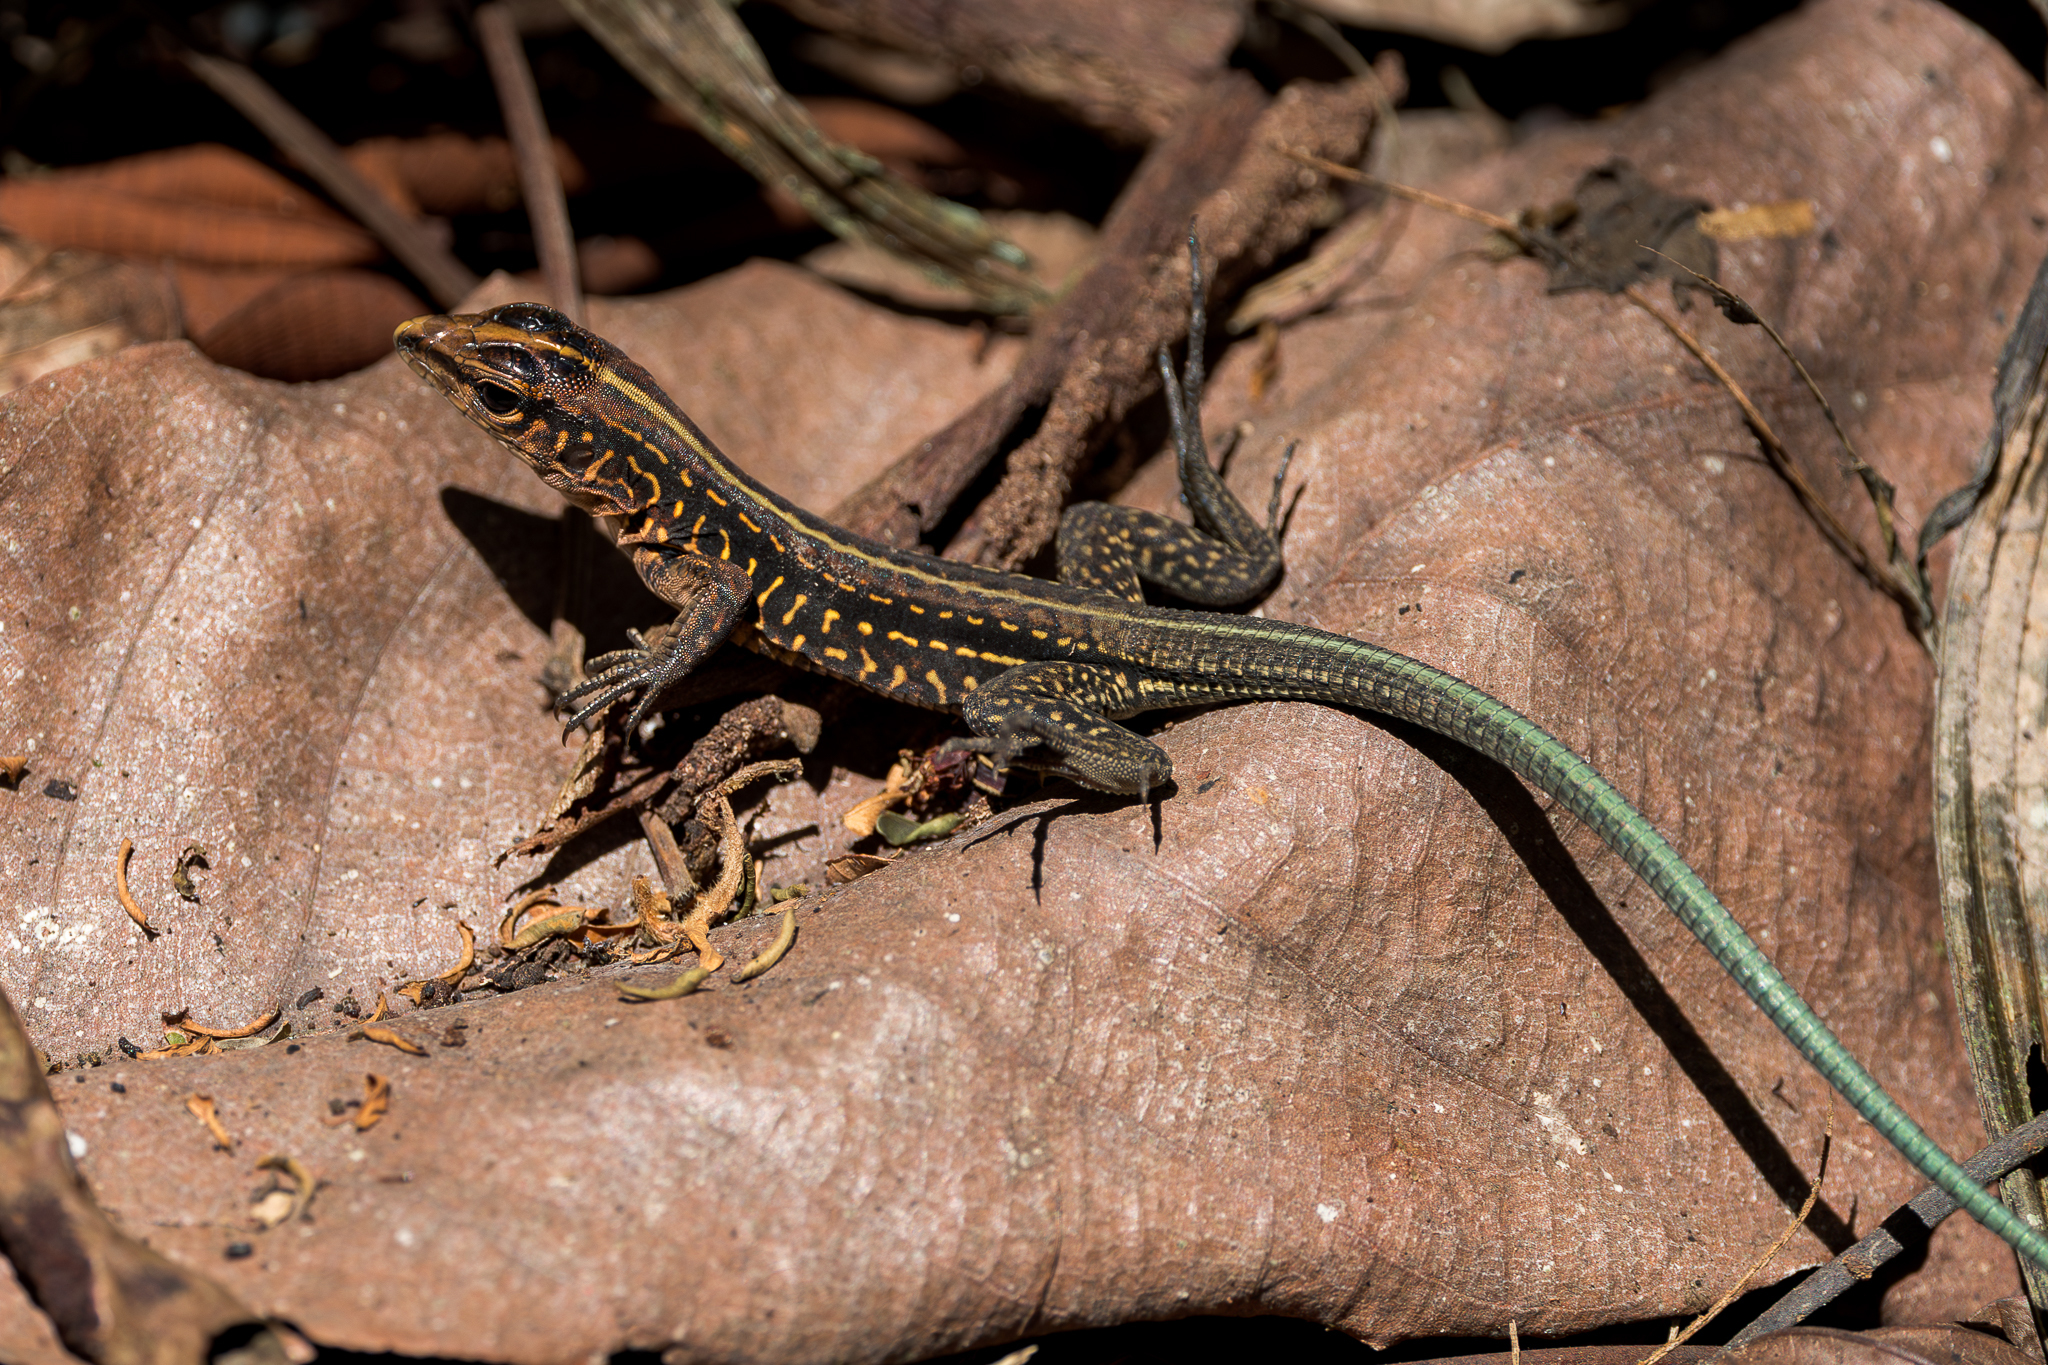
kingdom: Animalia
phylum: Chordata
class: Squamata
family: Teiidae
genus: Holcosus
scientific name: Holcosus festivus
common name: Middle american ameiva
